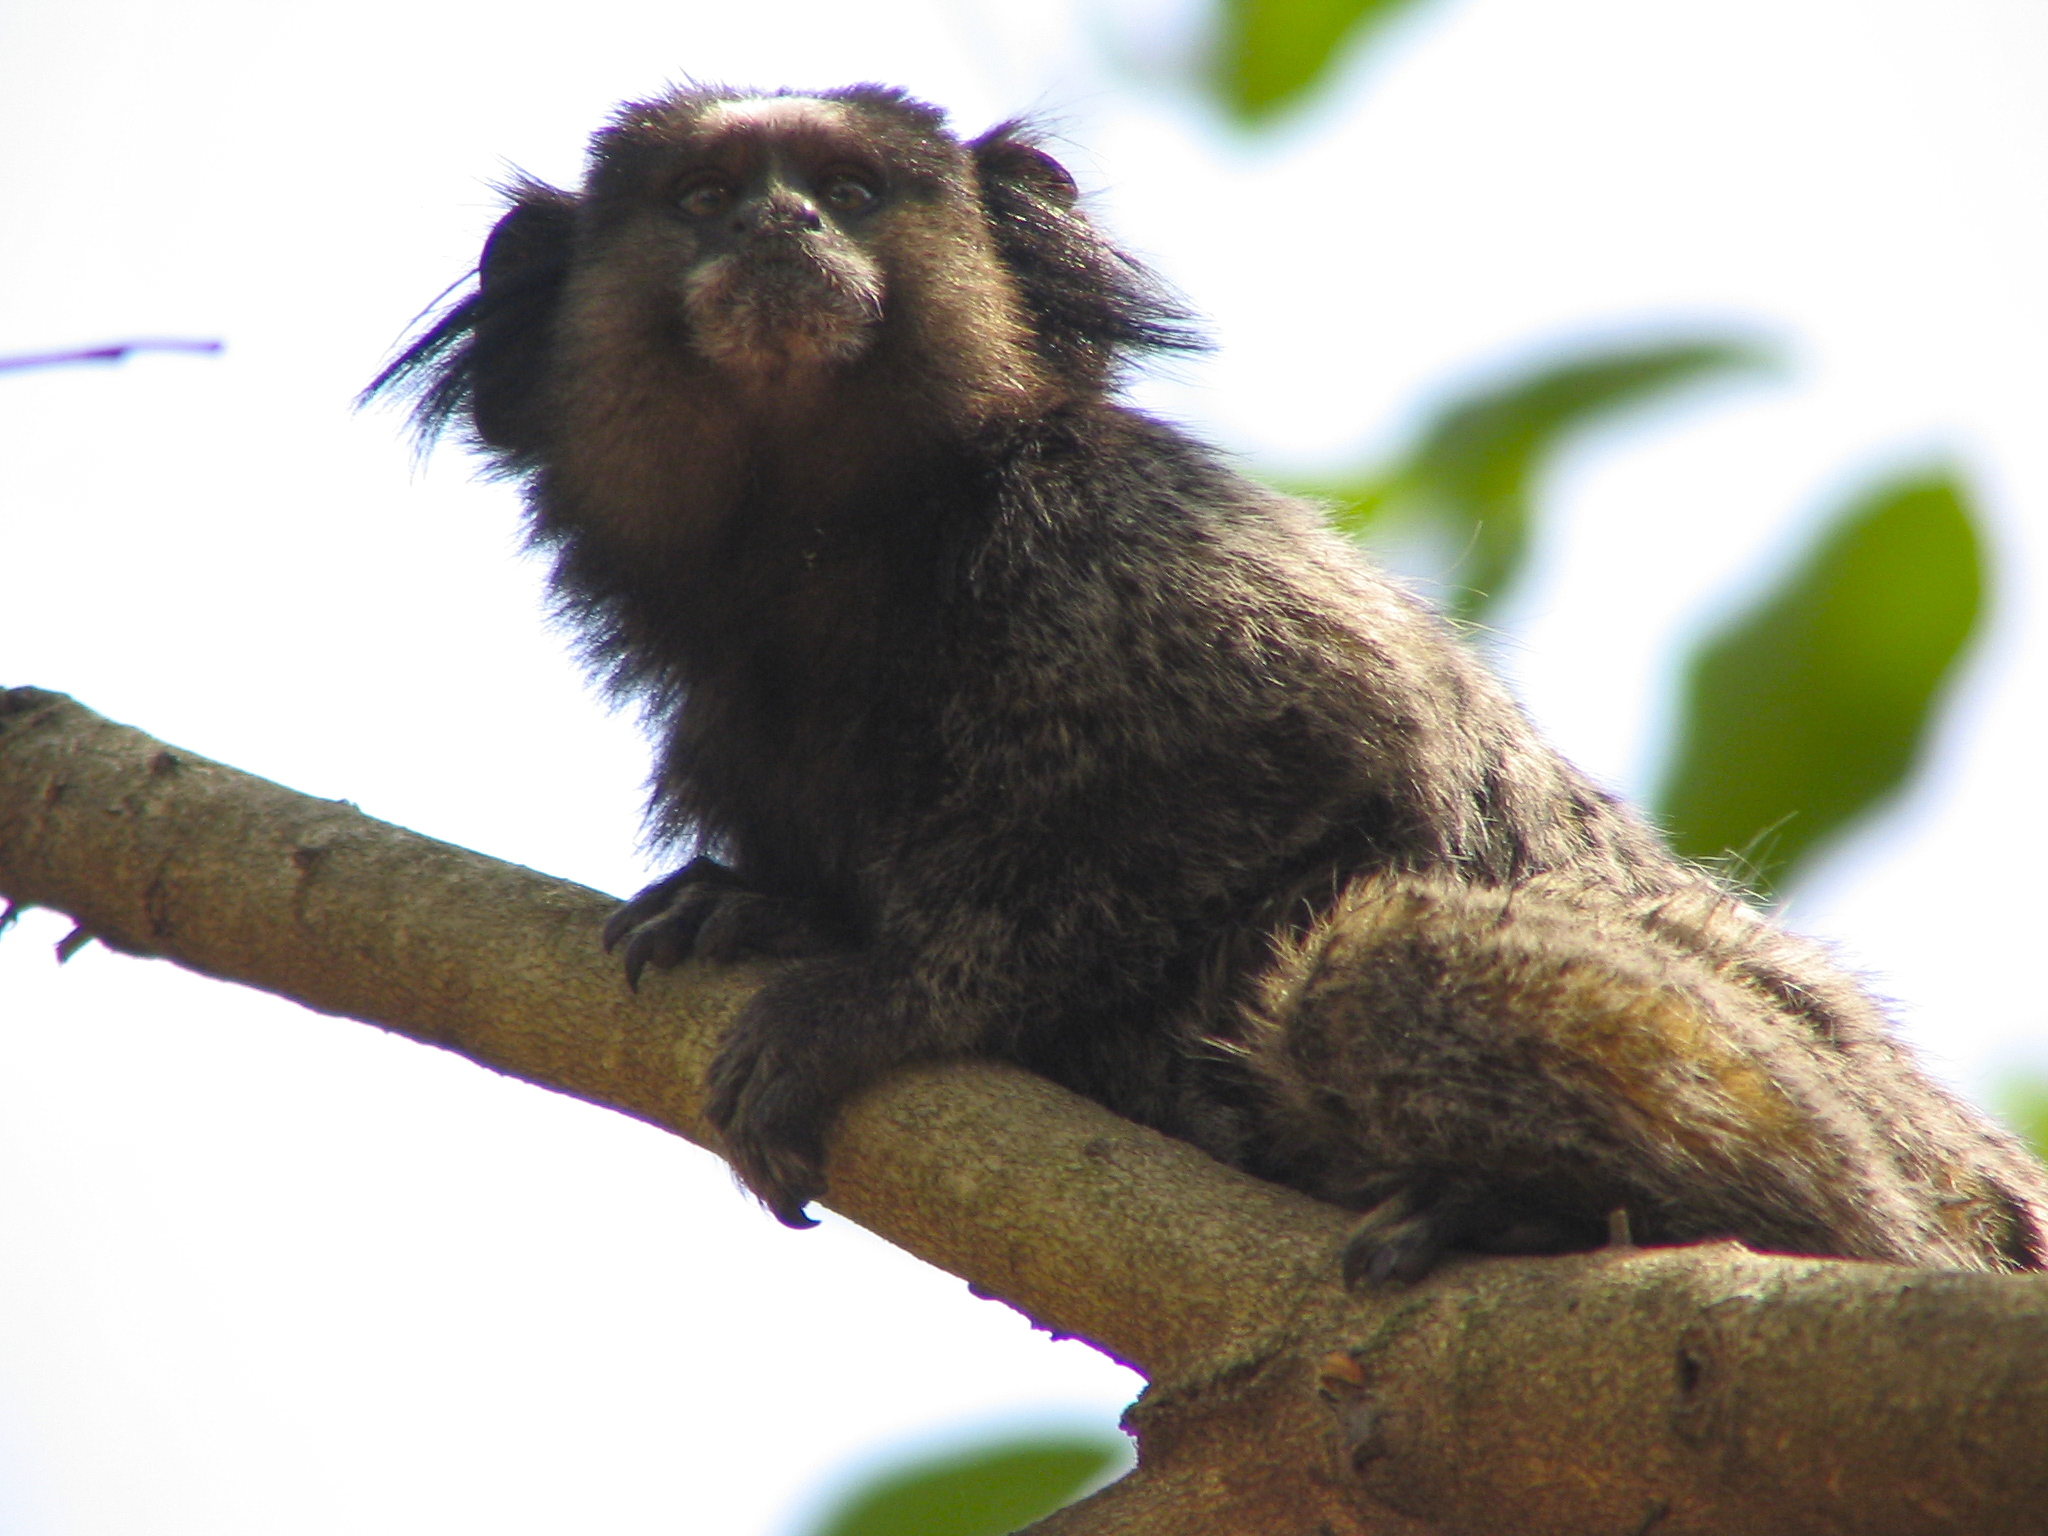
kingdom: Animalia
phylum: Chordata
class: Mammalia
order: Primates
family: Callitrichidae
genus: Callithrix
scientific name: Callithrix penicillata
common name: Black-tufted marmoset
